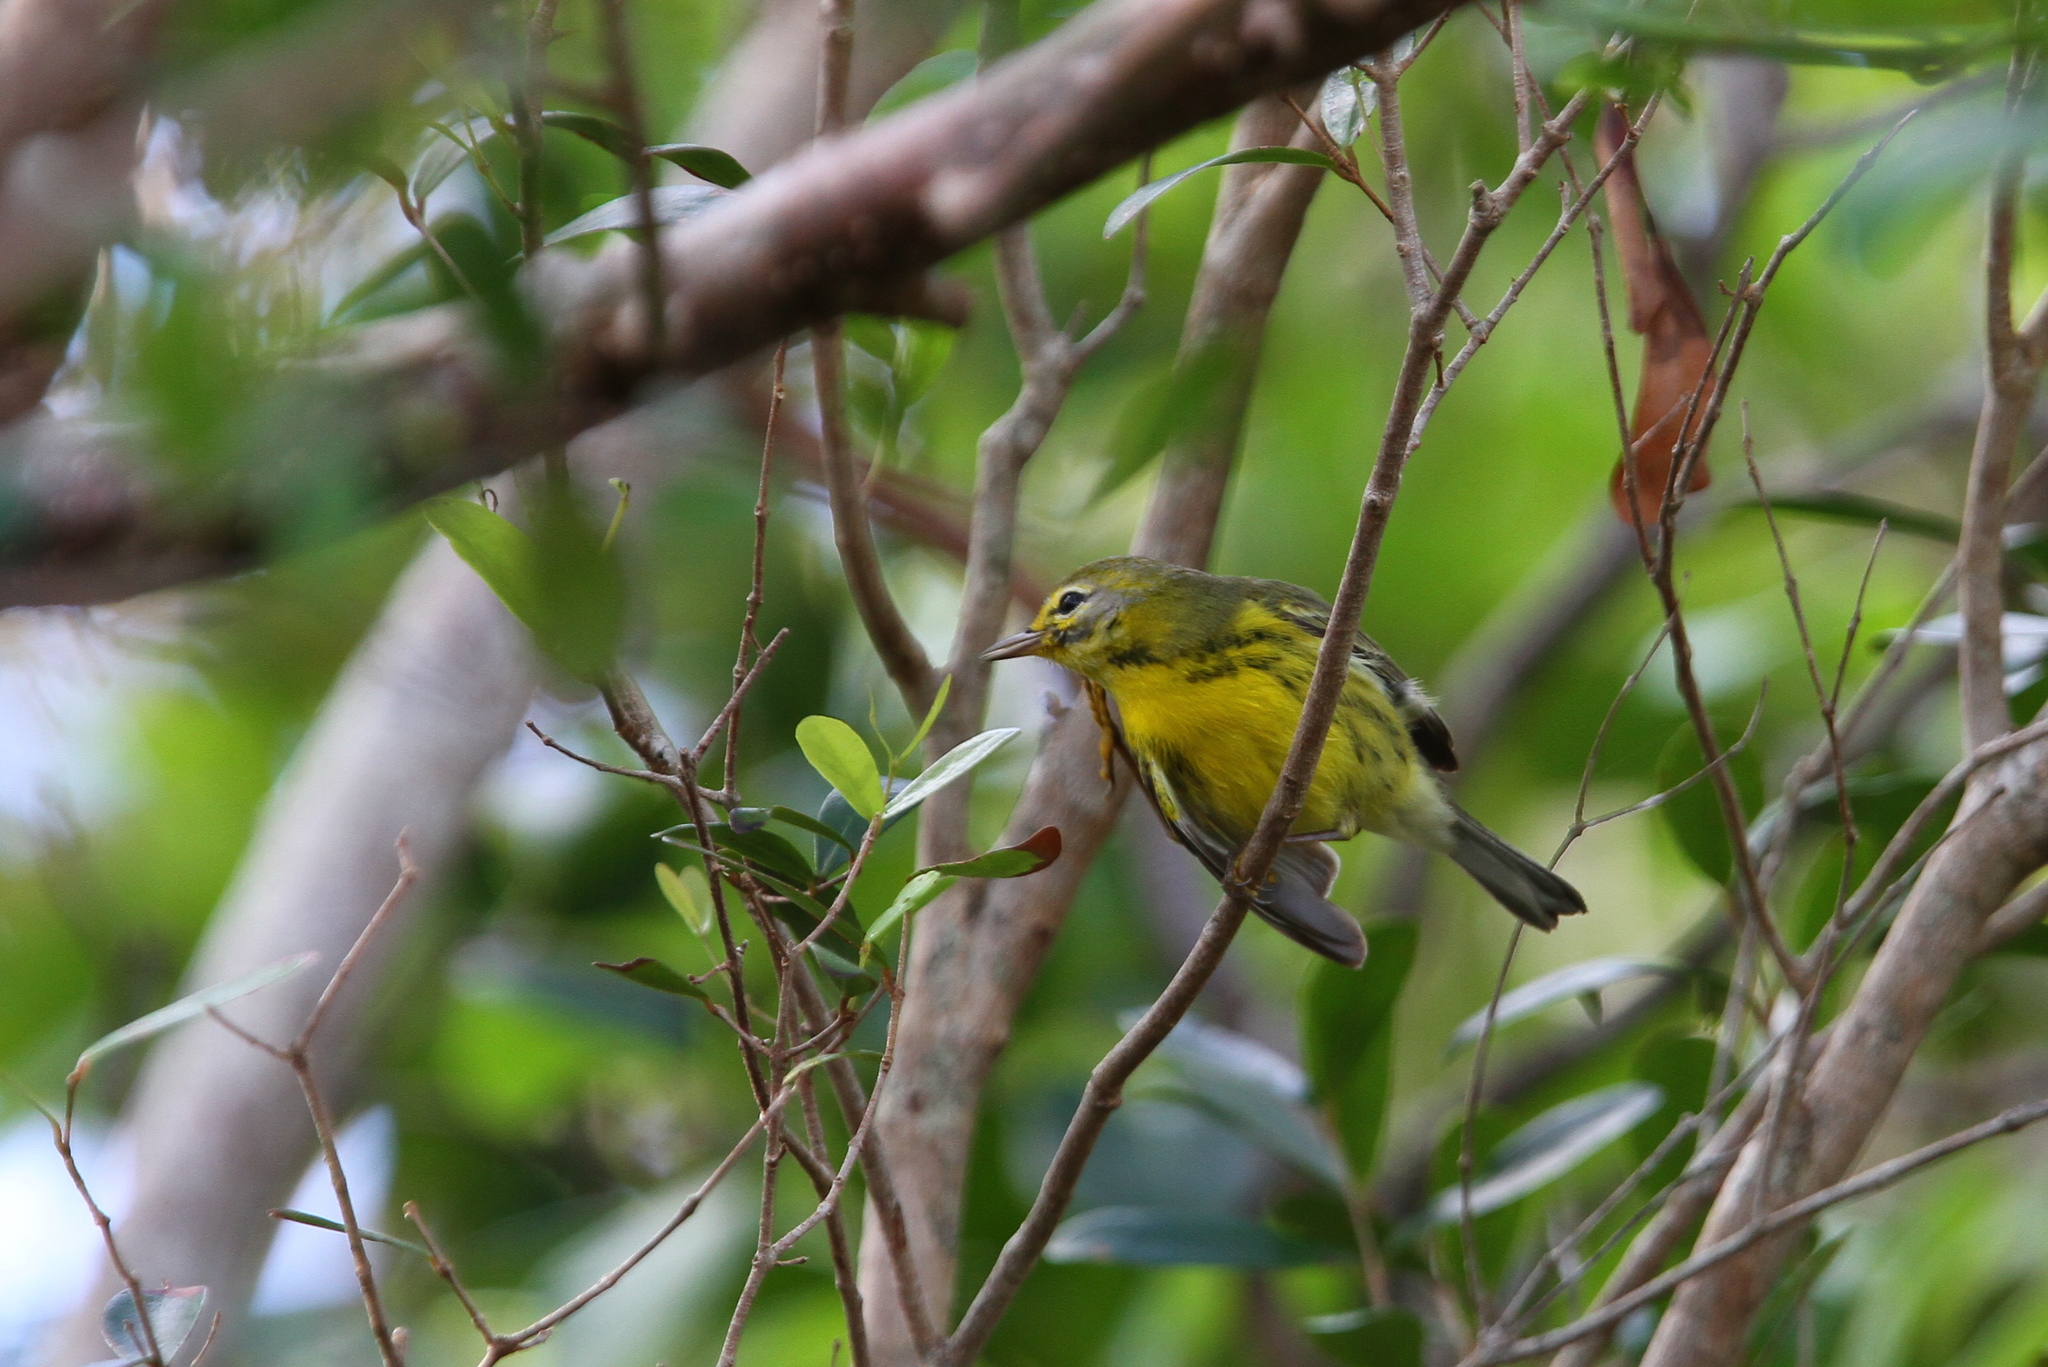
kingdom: Animalia
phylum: Chordata
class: Aves
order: Passeriformes
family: Parulidae
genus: Setophaga
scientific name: Setophaga discolor
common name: Prairie warbler
